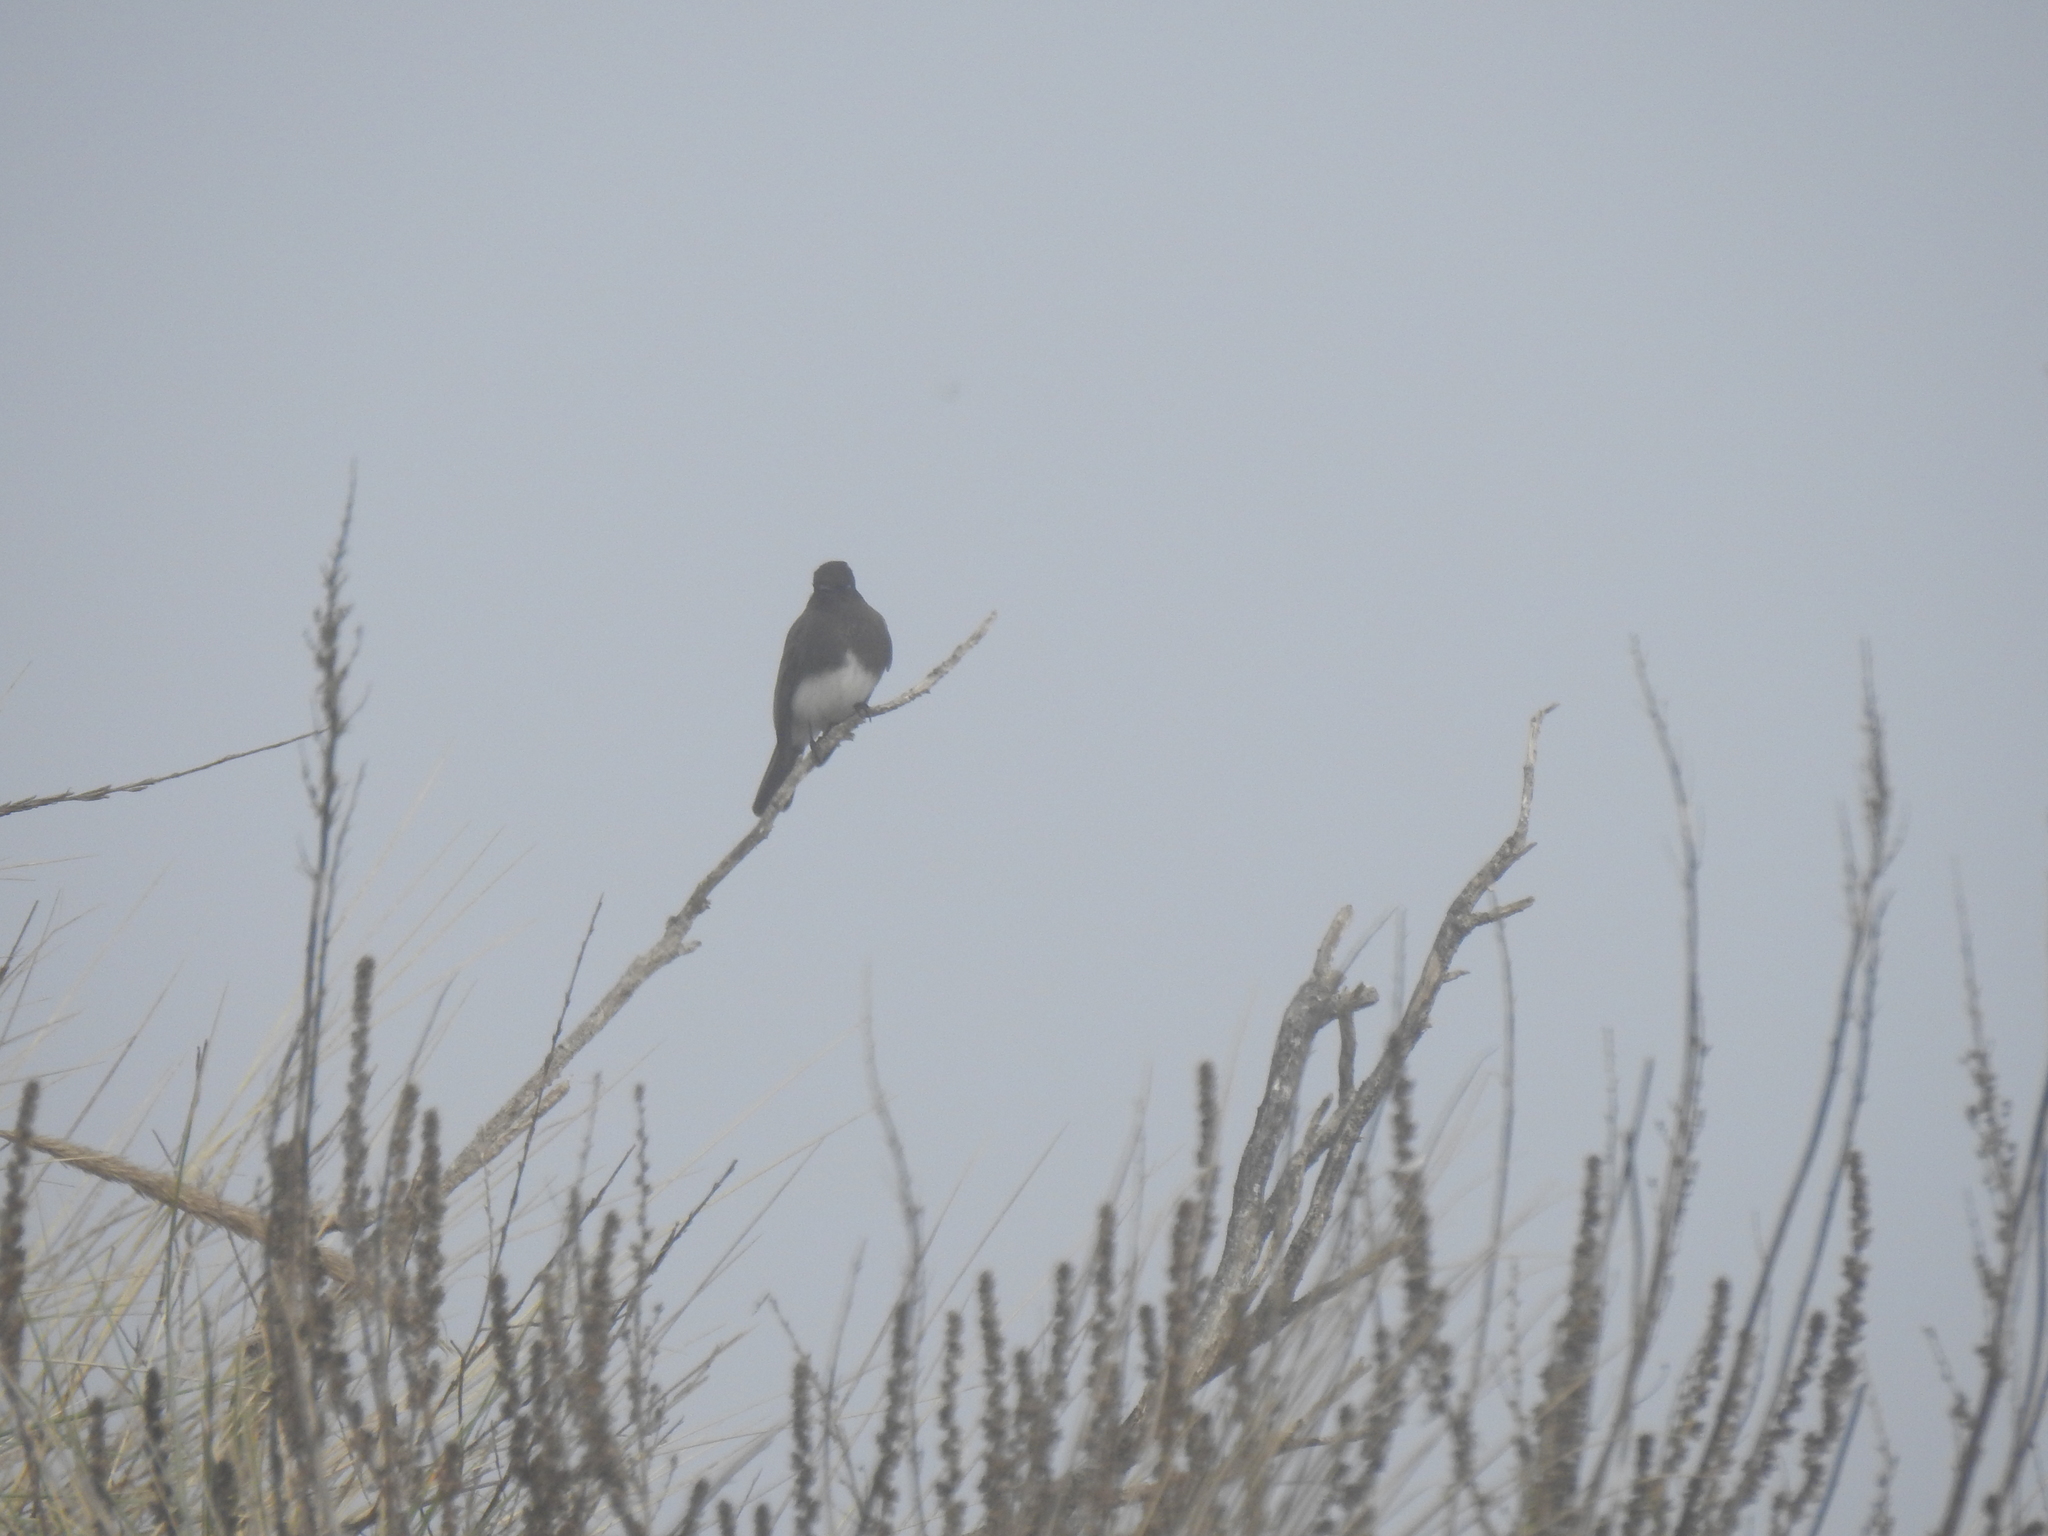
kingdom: Animalia
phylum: Chordata
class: Aves
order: Passeriformes
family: Tyrannidae
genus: Sayornis
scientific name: Sayornis nigricans
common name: Black phoebe
